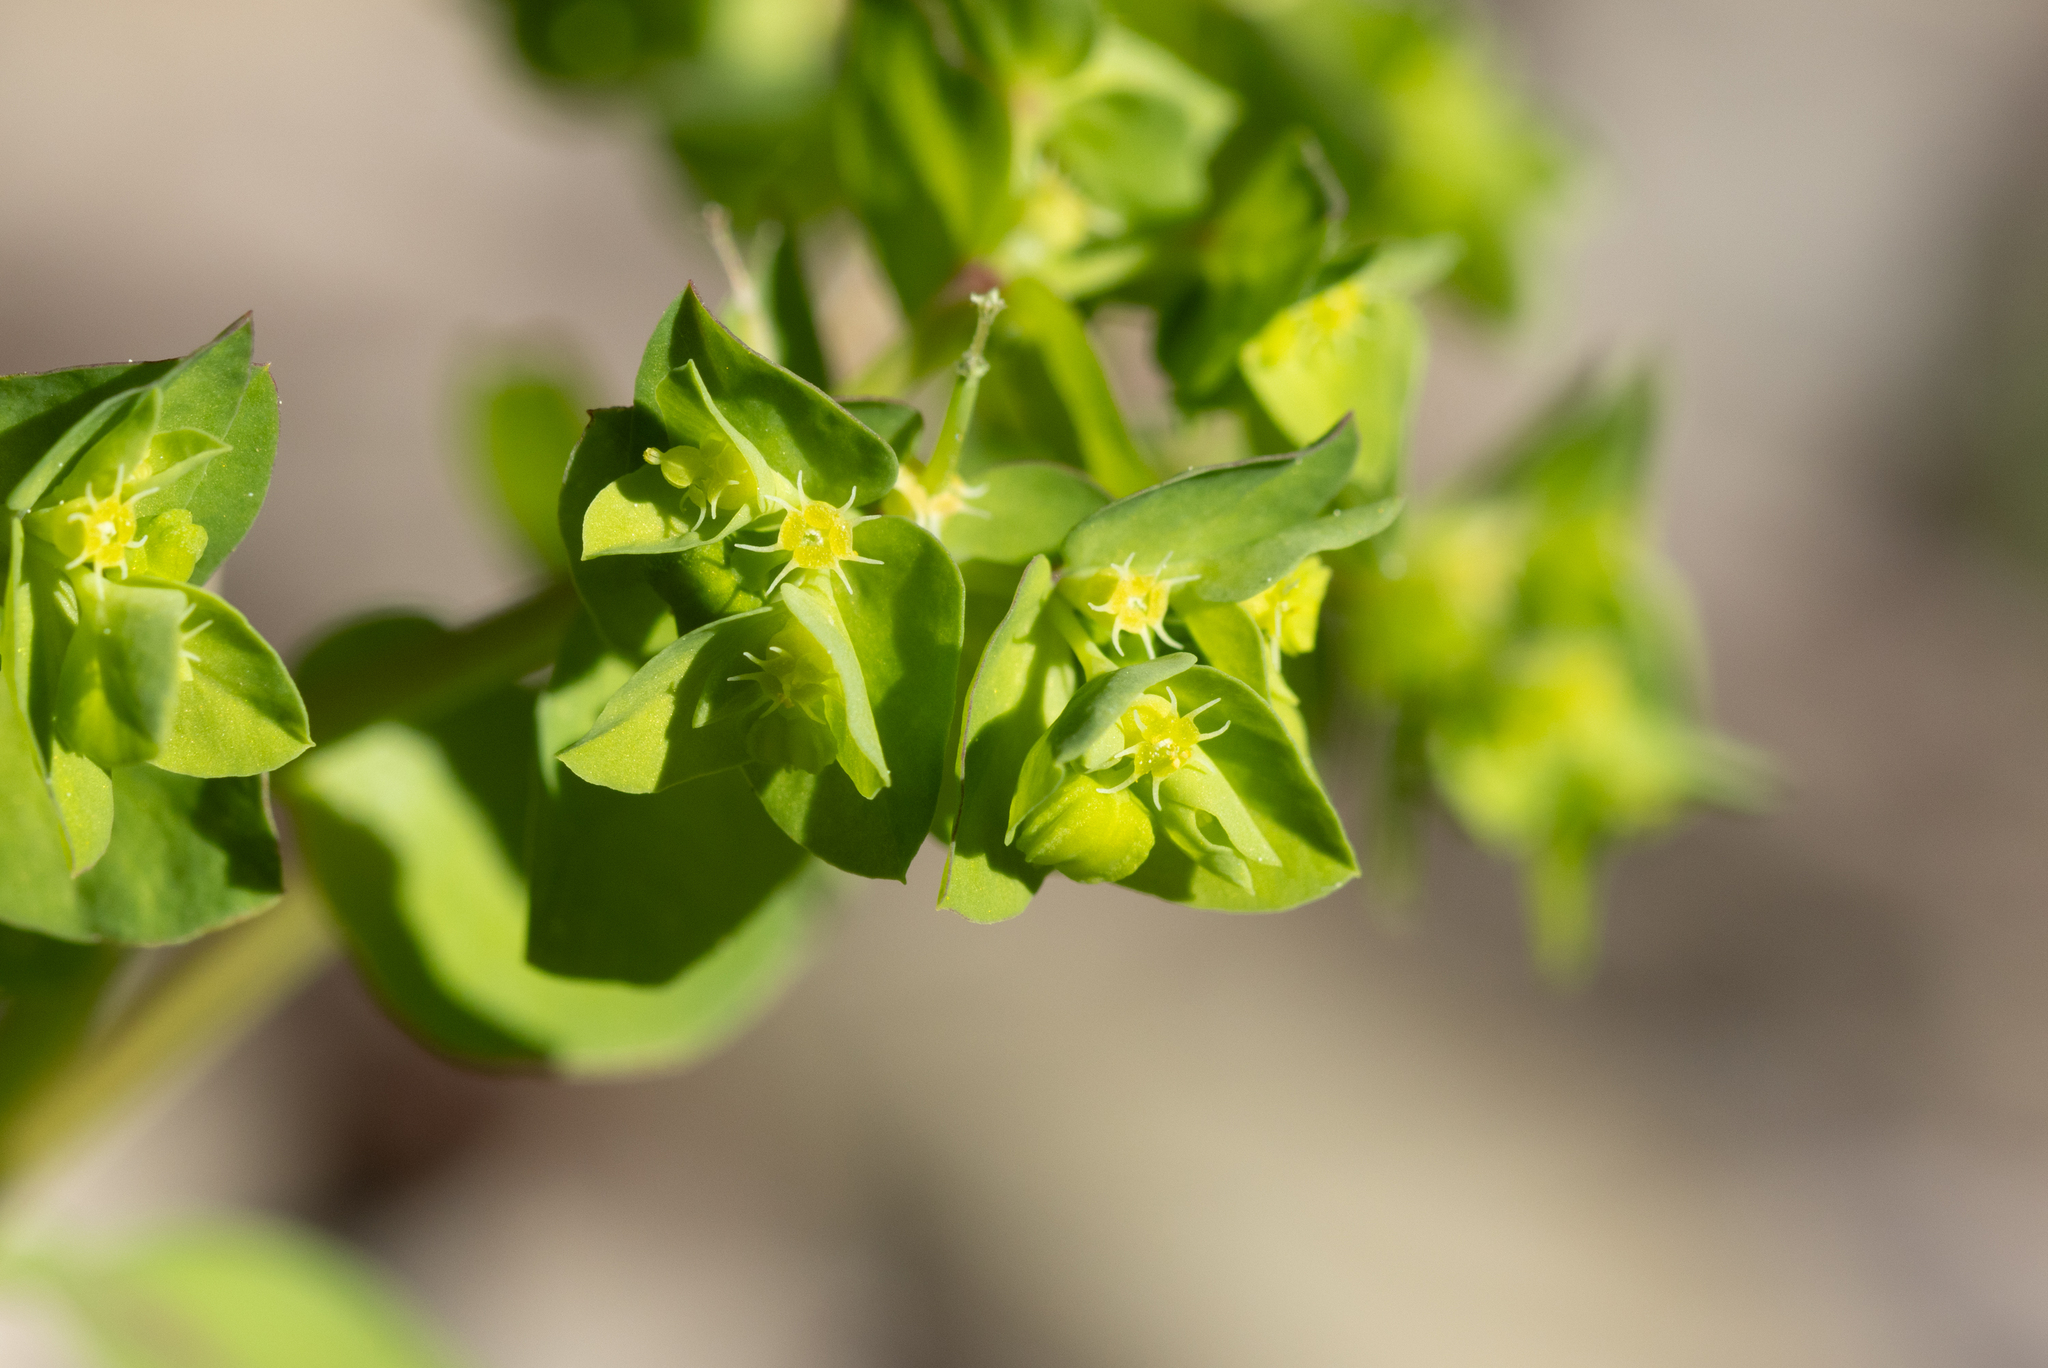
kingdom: Plantae
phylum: Tracheophyta
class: Magnoliopsida
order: Malpighiales
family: Euphorbiaceae
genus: Euphorbia
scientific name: Euphorbia peplus
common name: Petty spurge
